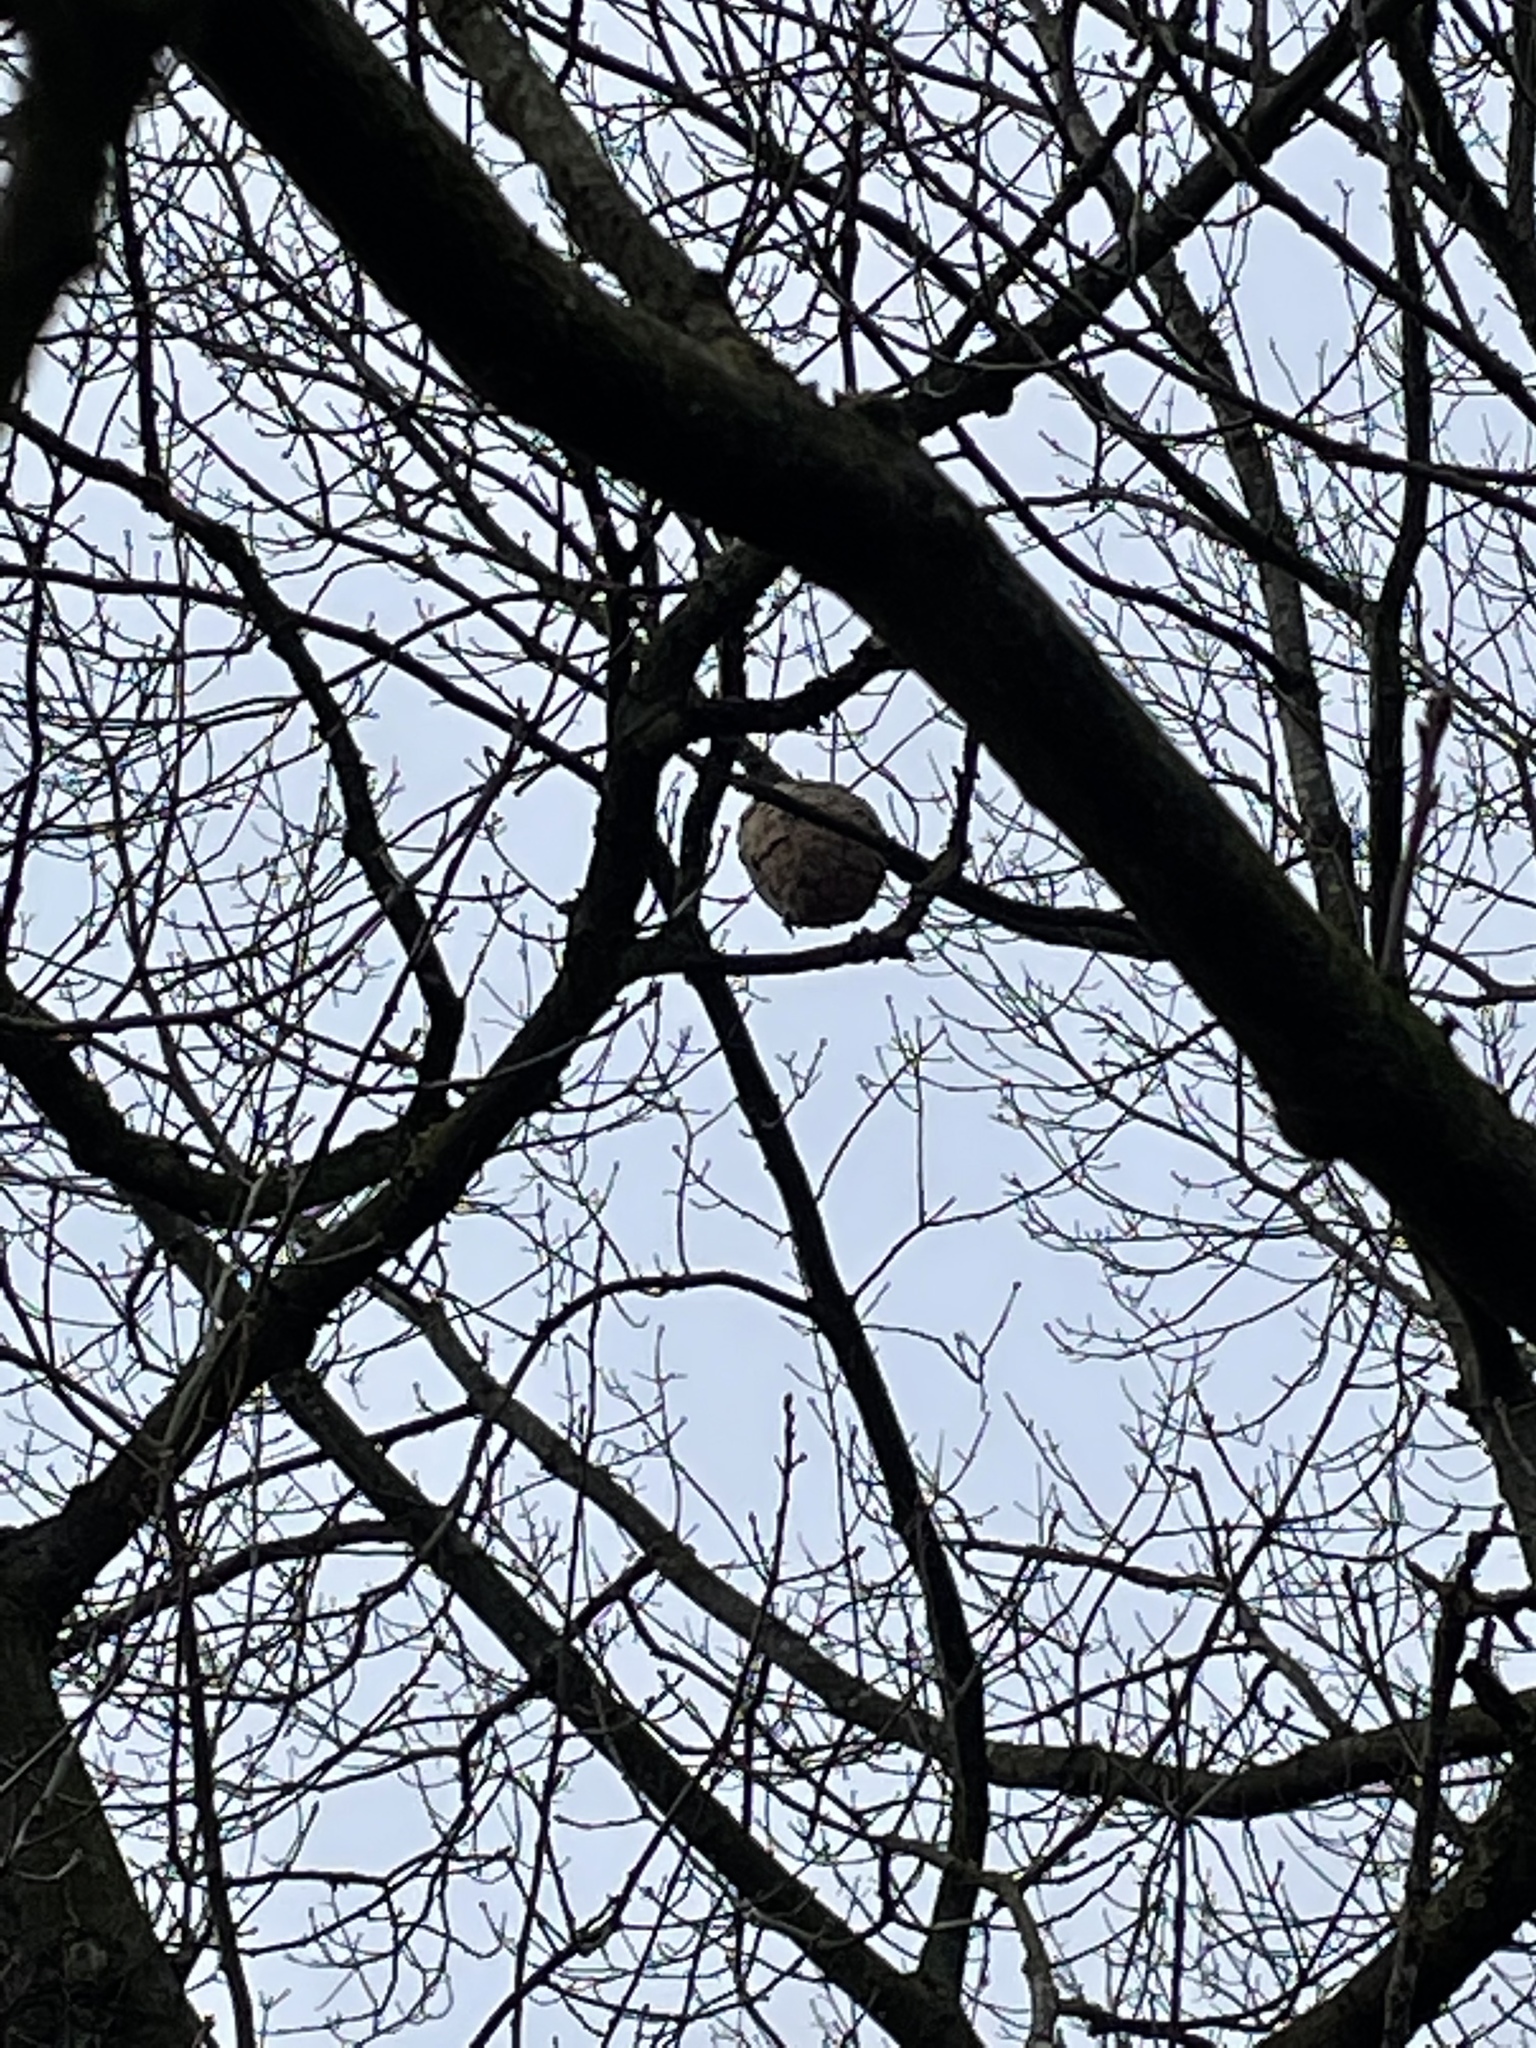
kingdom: Animalia
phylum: Arthropoda
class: Insecta
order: Hymenoptera
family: Vespidae
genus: Vespa
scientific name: Vespa velutina
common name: Asian hornet
